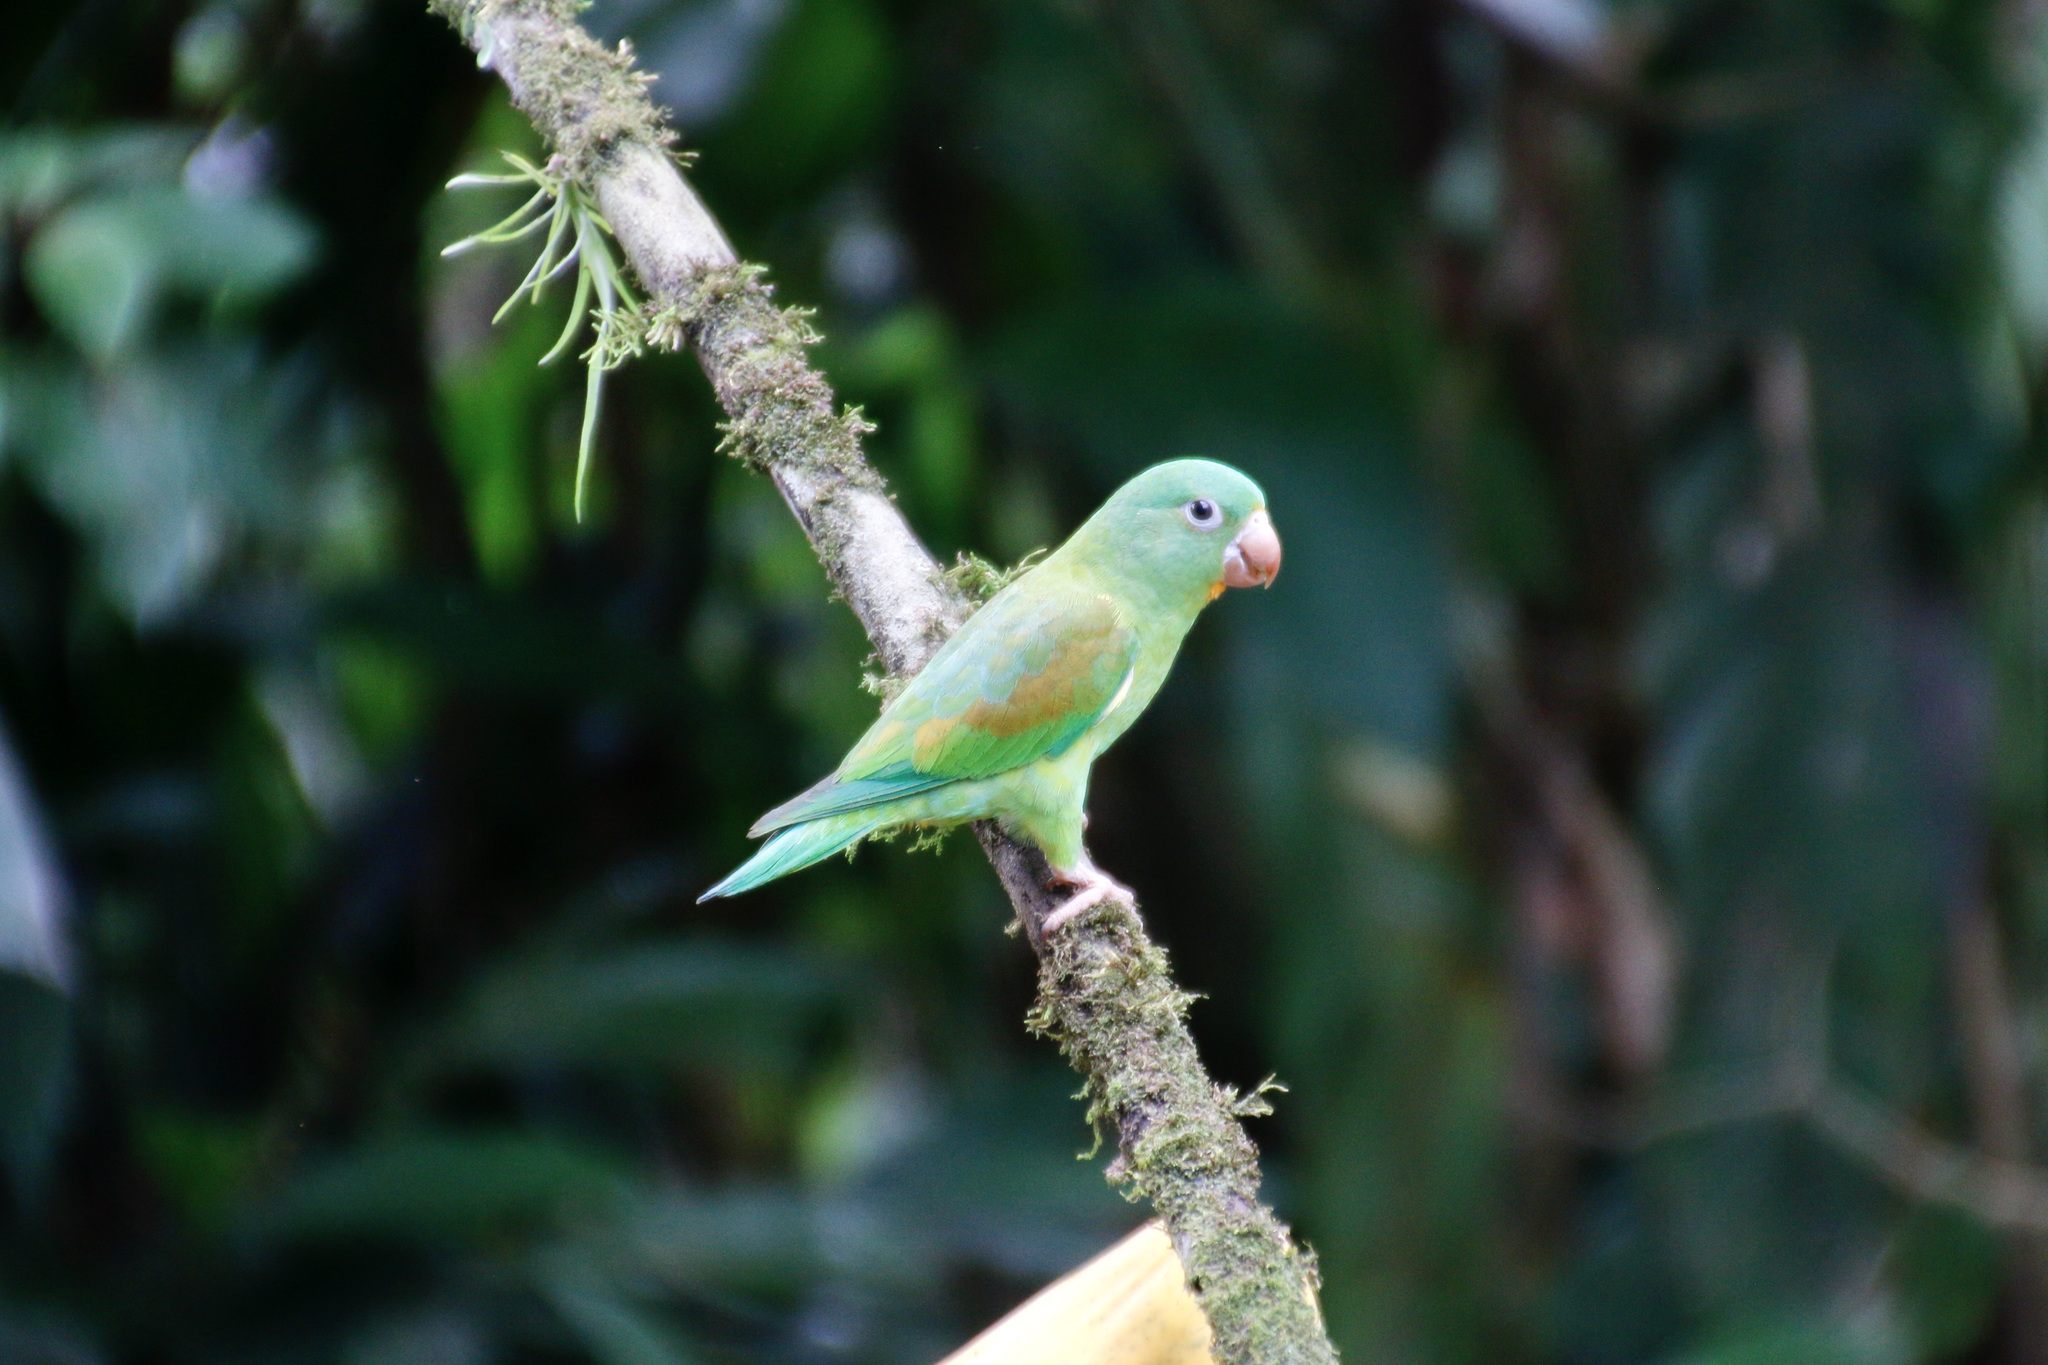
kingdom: Animalia
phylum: Chordata
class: Aves
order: Psittaciformes
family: Psittacidae
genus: Brotogeris
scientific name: Brotogeris jugularis
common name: Orange-chinned parakeet
